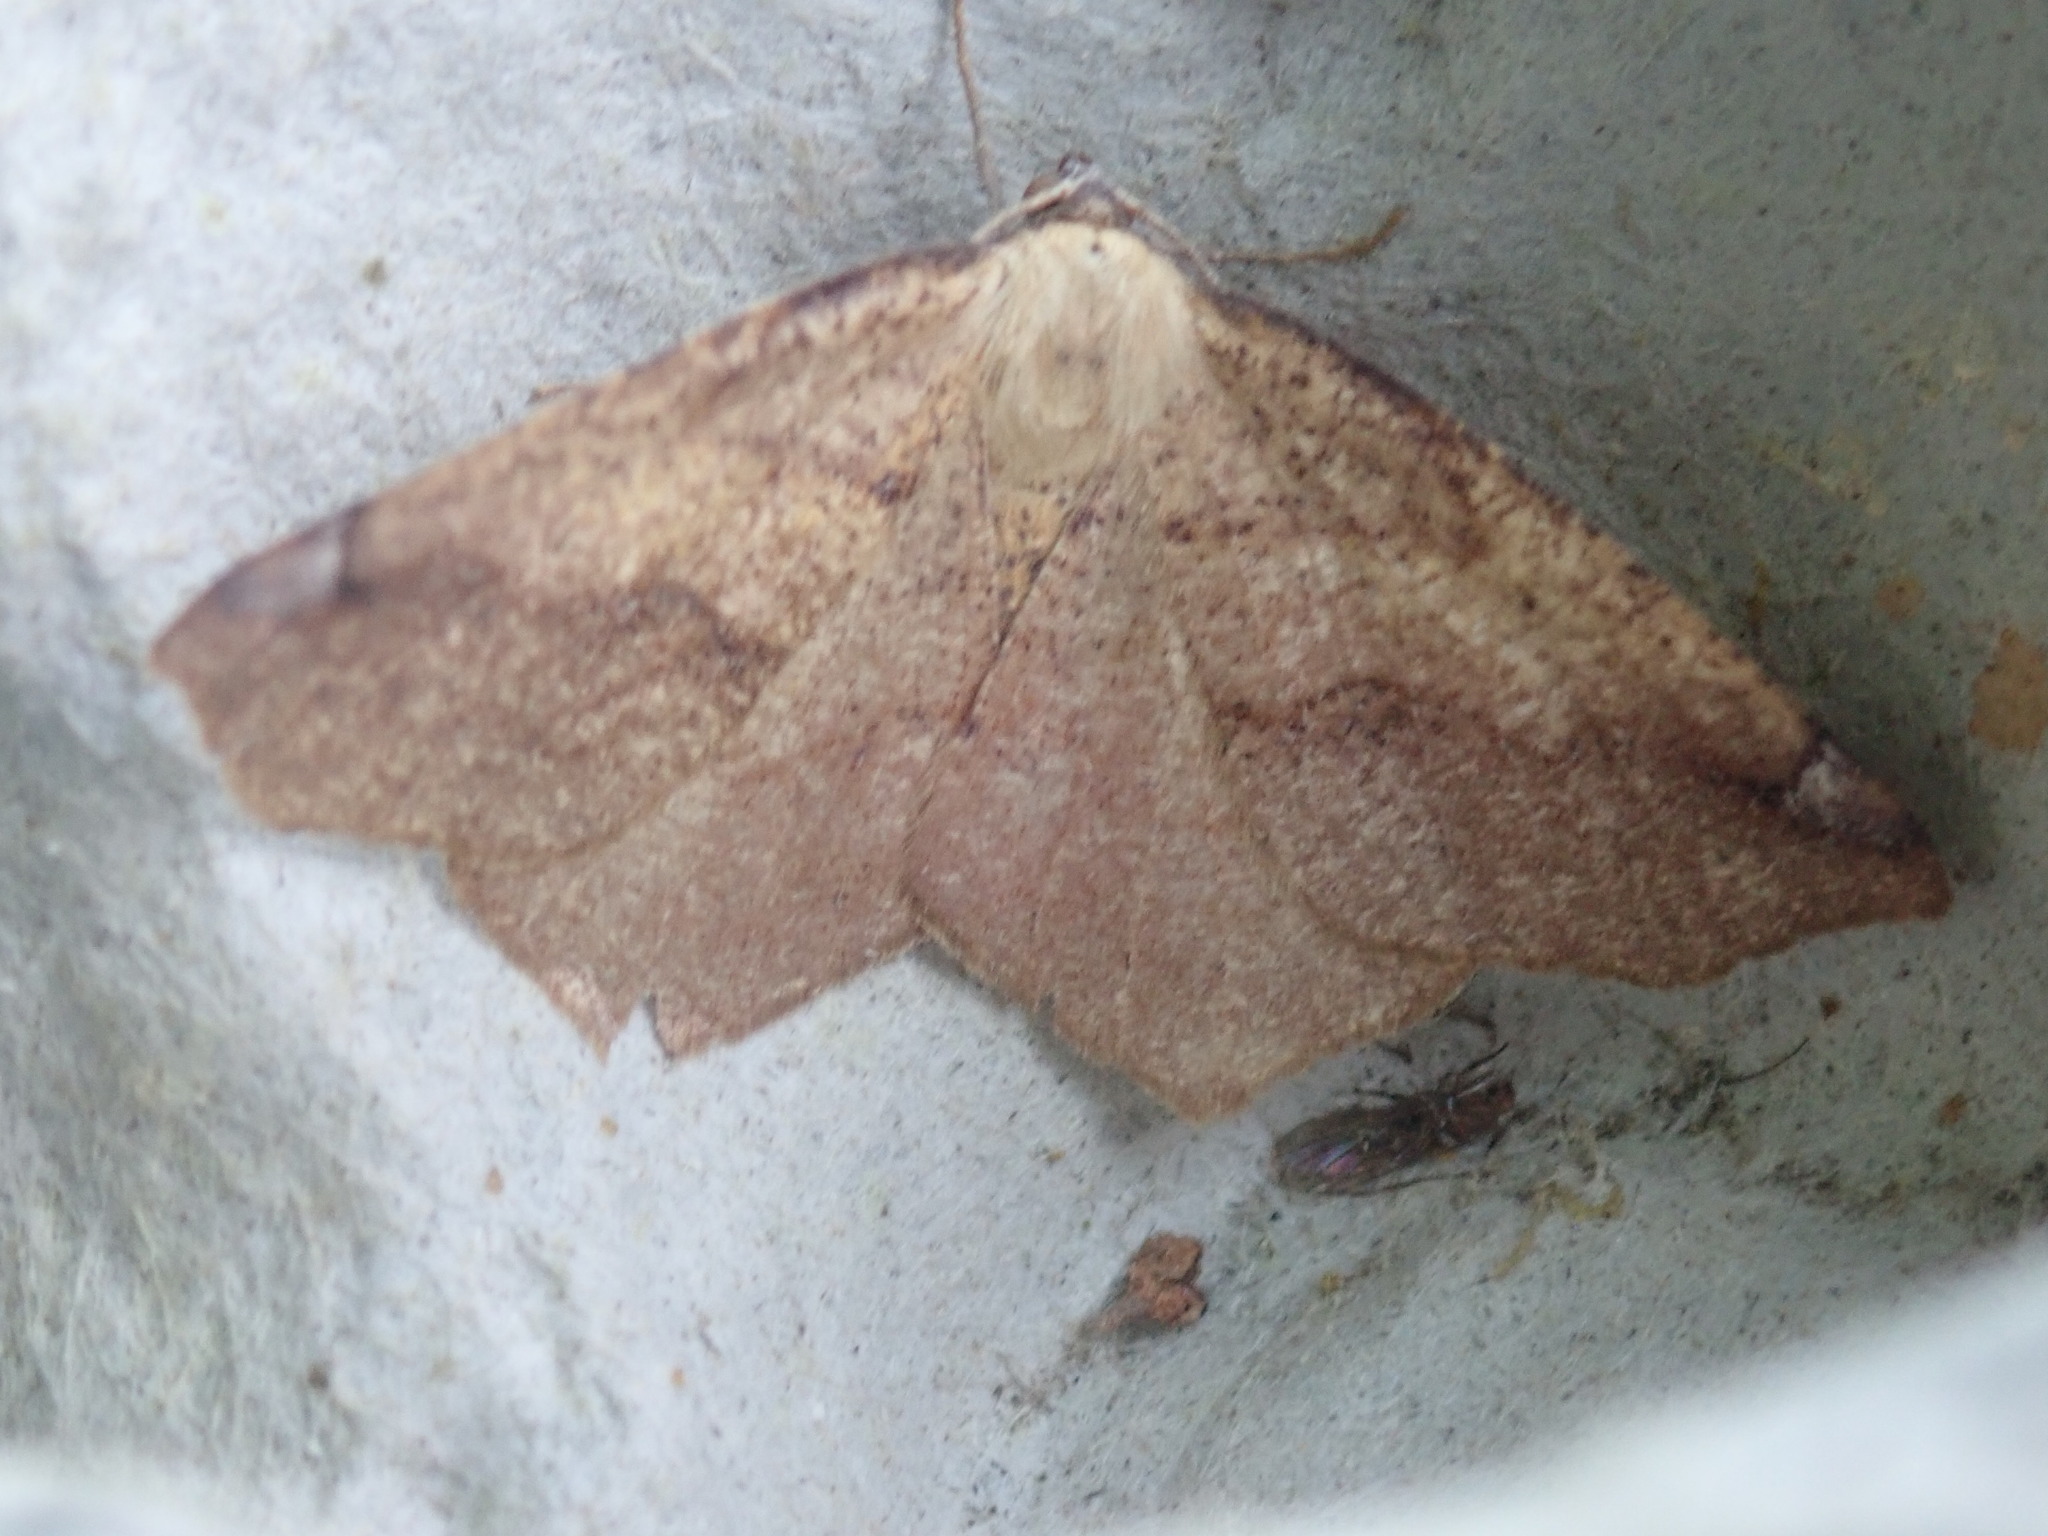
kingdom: Animalia
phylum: Arthropoda
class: Insecta
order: Lepidoptera
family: Geometridae
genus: Antepione
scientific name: Antepione thisoaria
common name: Variable antipione
